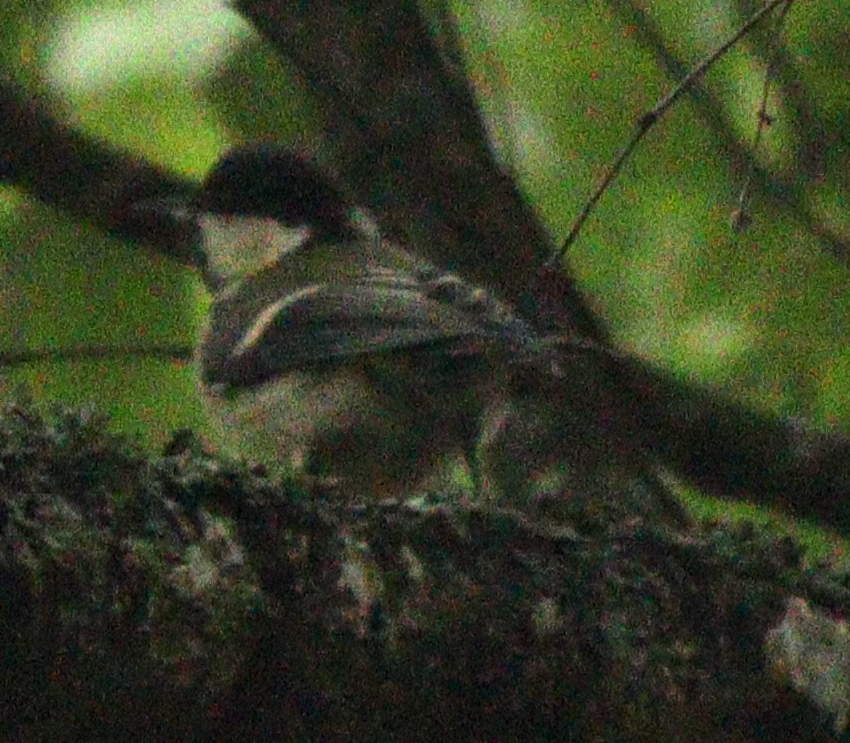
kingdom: Animalia
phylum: Chordata
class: Aves
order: Passeriformes
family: Paridae
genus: Parus
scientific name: Parus major
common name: Great tit
